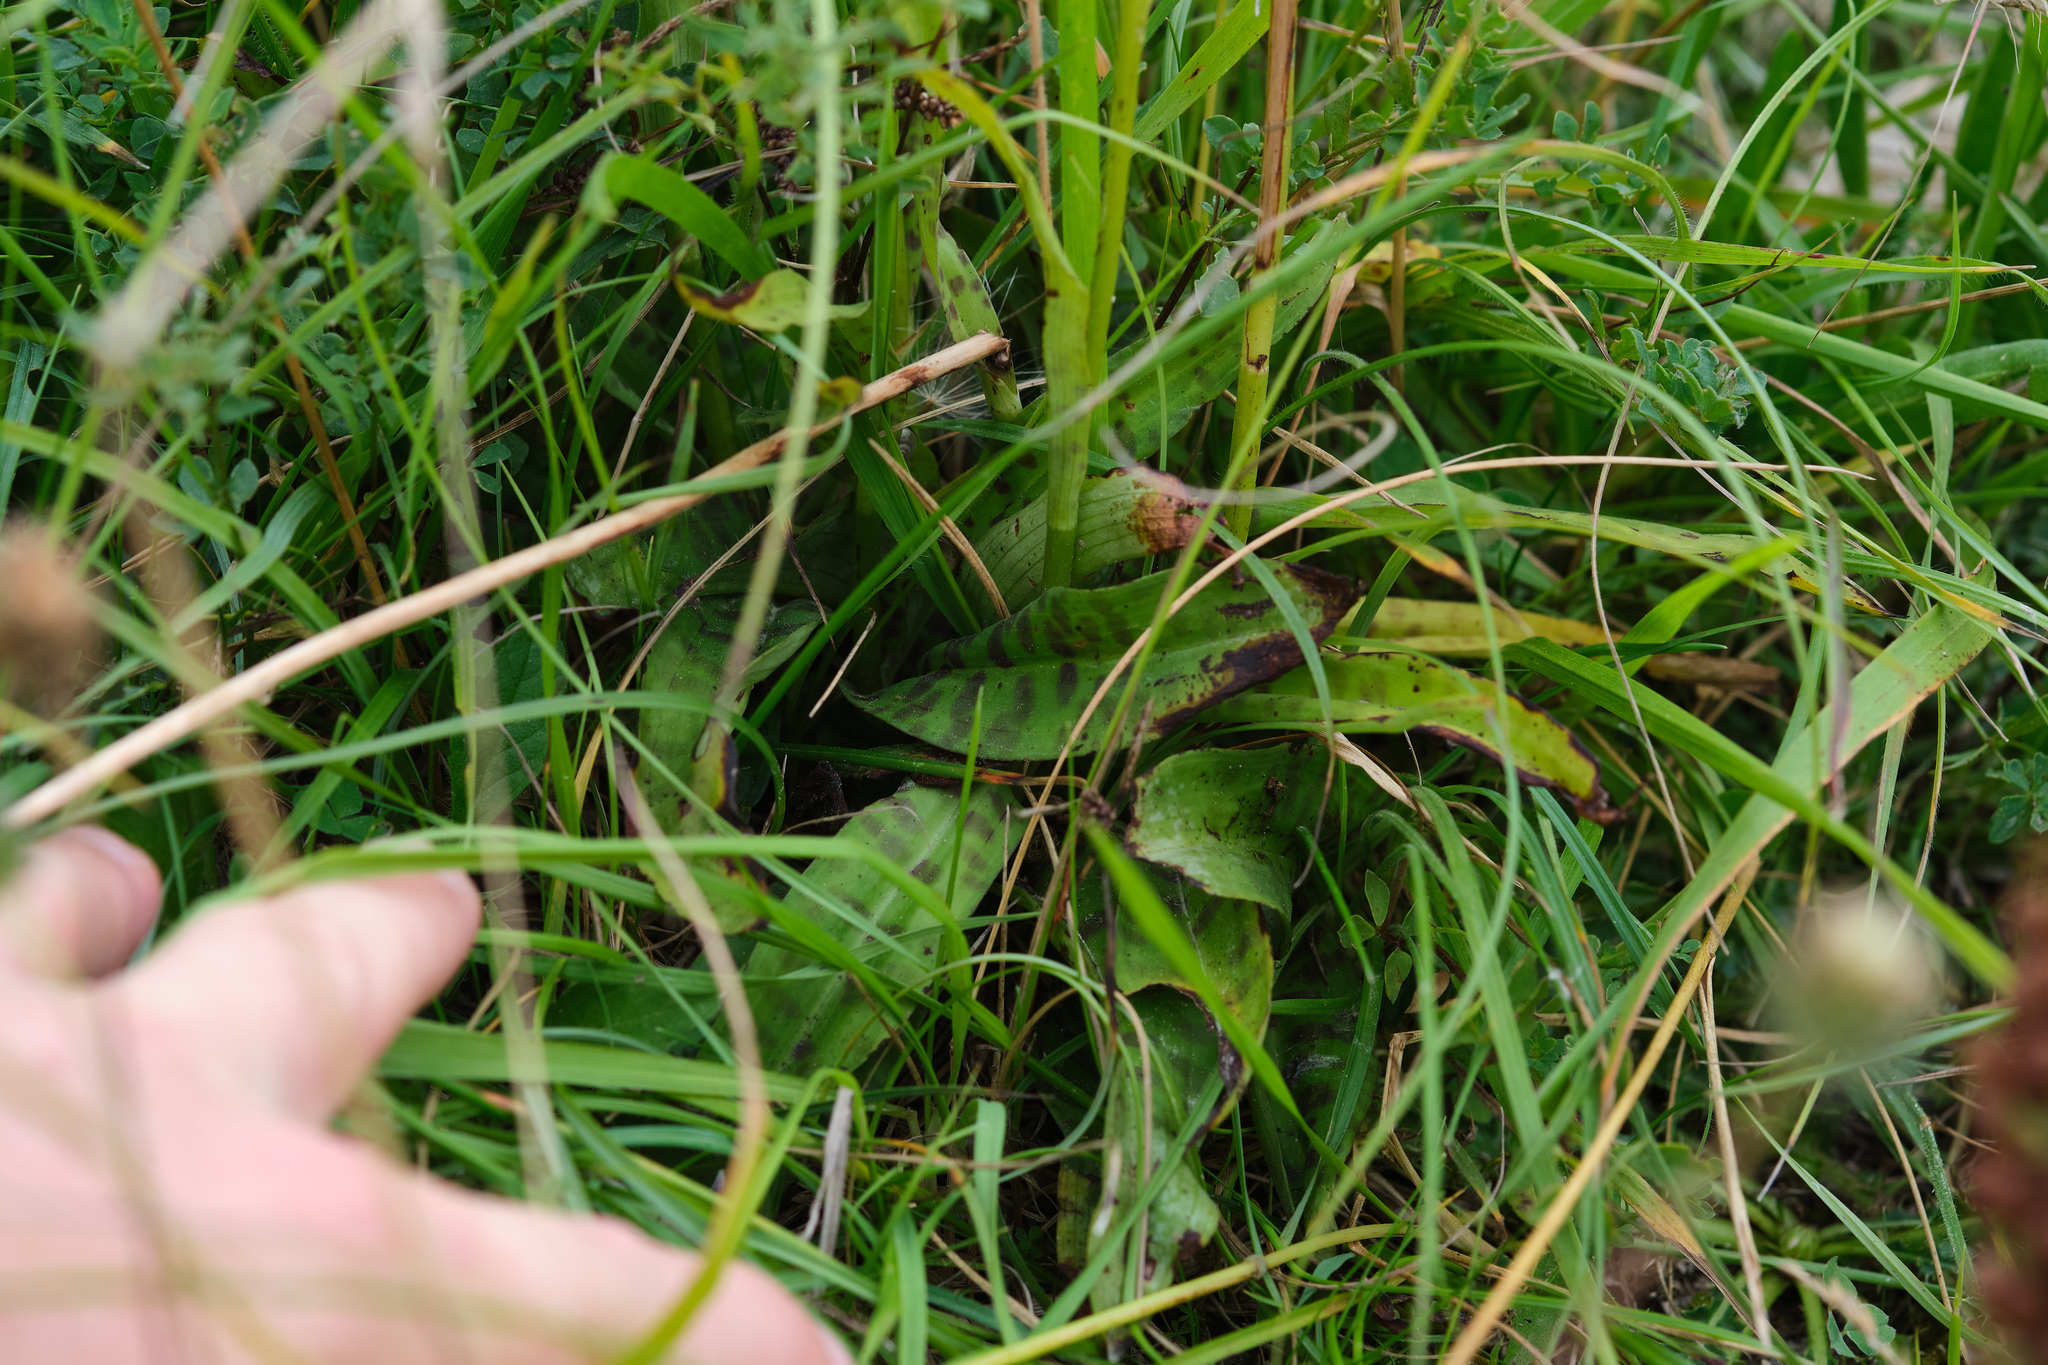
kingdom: Plantae
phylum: Tracheophyta
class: Liliopsida
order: Asparagales
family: Orchidaceae
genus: Dactylorhiza
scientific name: Dactylorhiza maculata
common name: Heath spotted-orchid
